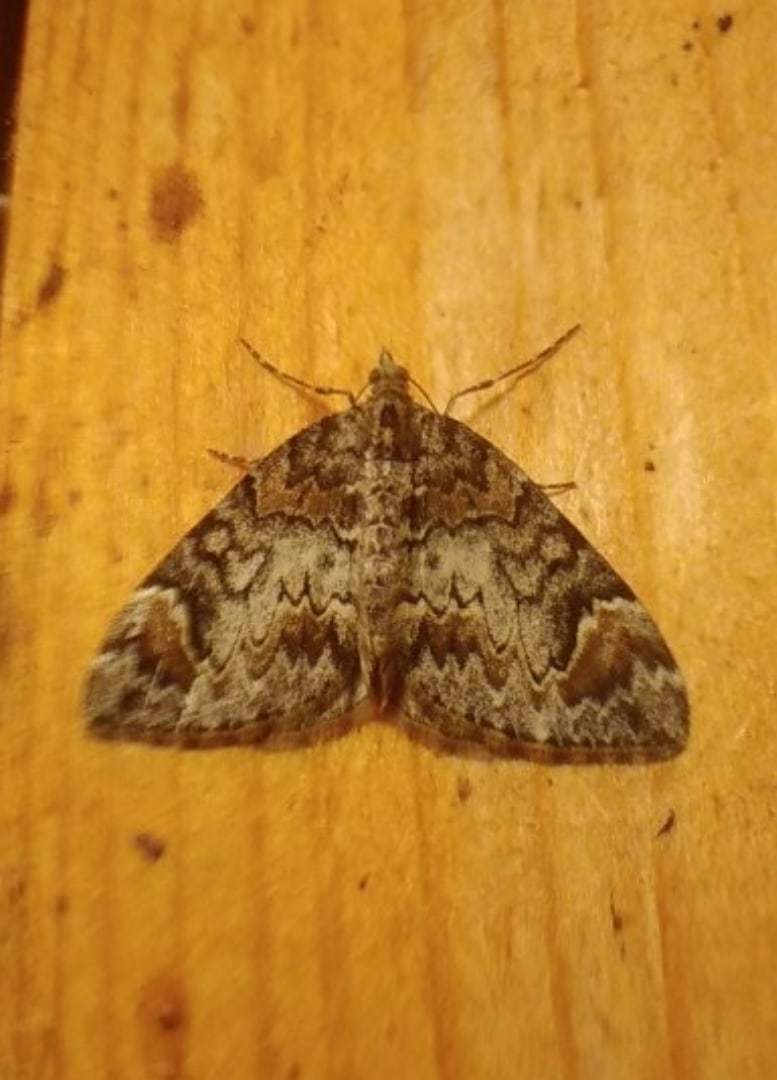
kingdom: Animalia
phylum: Arthropoda
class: Insecta
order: Lepidoptera
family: Geometridae
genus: Dysstroma
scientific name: Dysstroma citrata
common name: Dark marbled carpet
